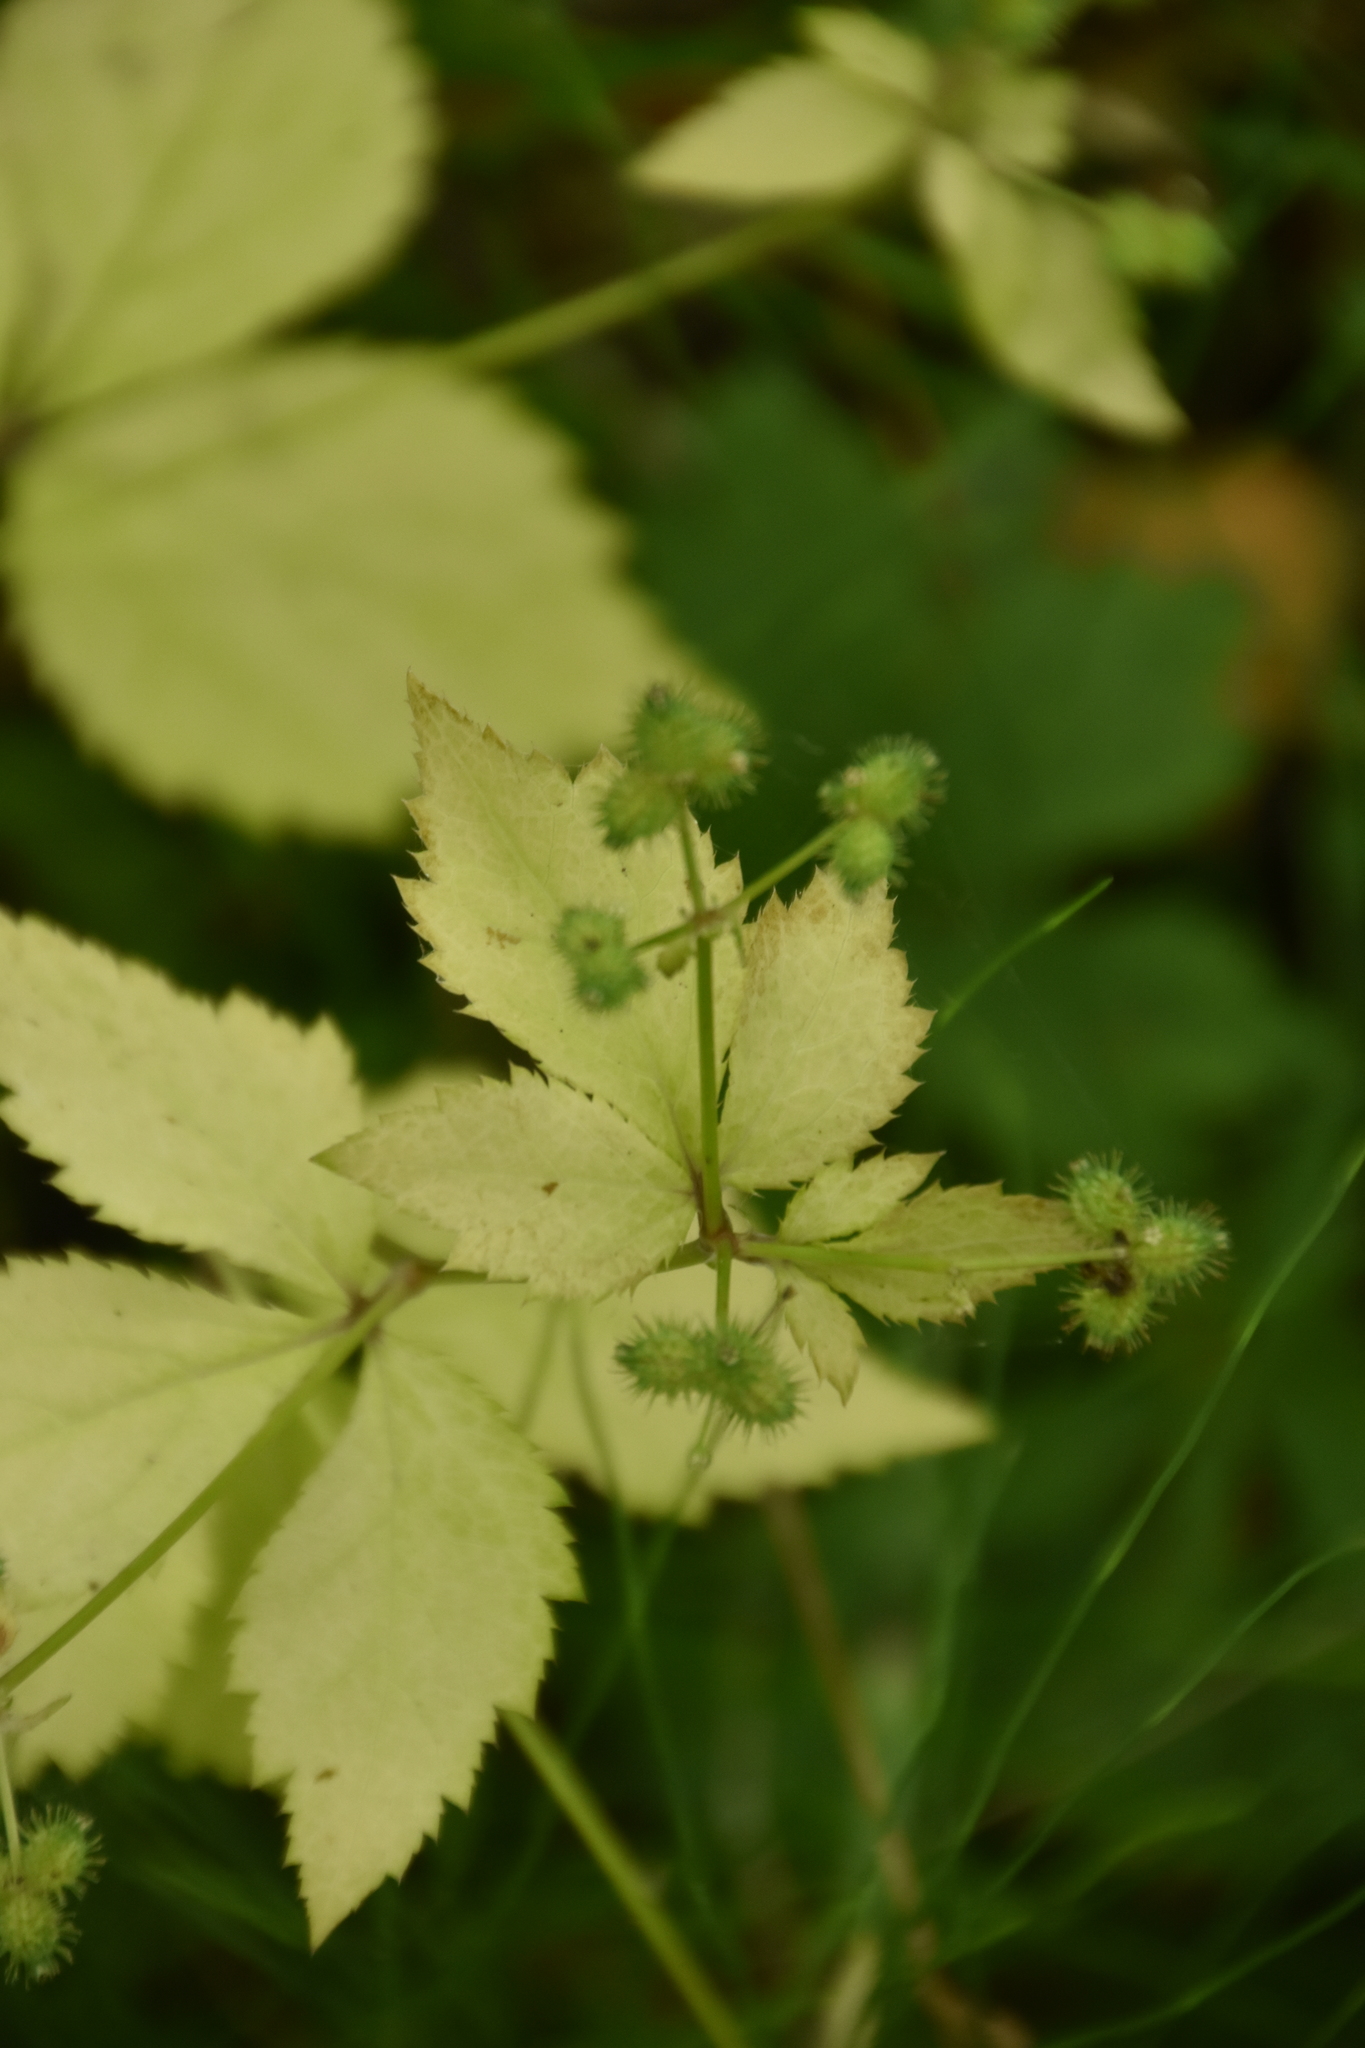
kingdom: Plantae
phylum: Tracheophyta
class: Magnoliopsida
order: Apiales
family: Apiaceae
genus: Sanicula
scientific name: Sanicula trifoliata
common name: Beaked sanicle
